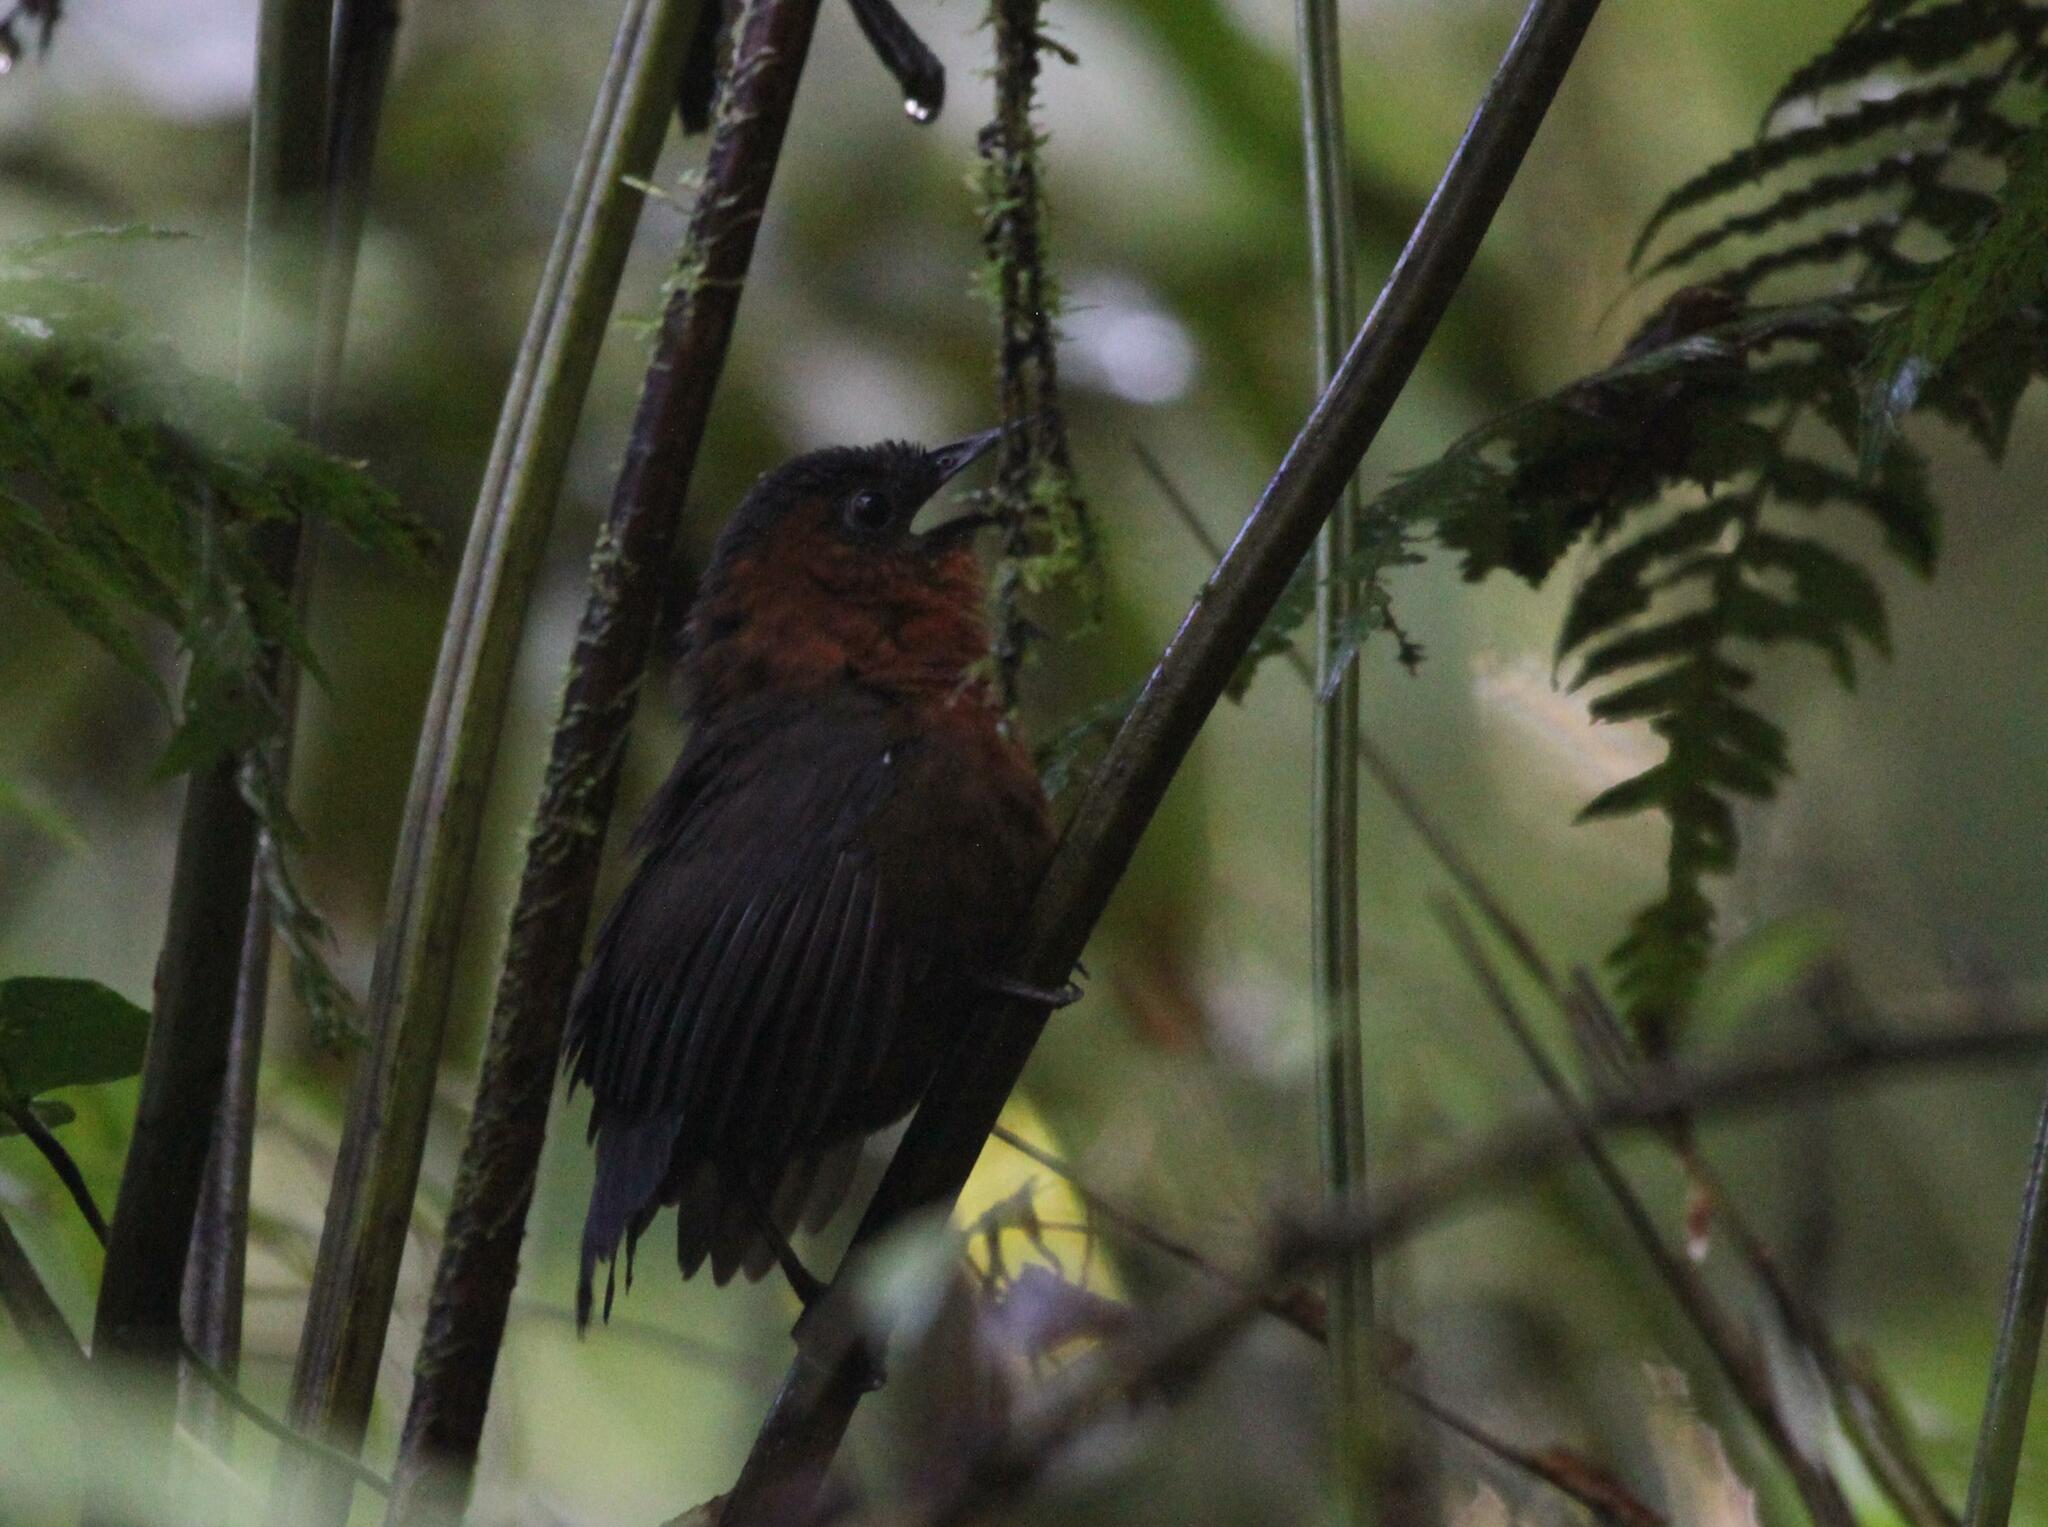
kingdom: Animalia
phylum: Chordata
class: Aves
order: Passeriformes
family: Troglodytidae
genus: Cyphorhinus
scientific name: Cyphorhinus thoracicus
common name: Chestnut-breasted wren
